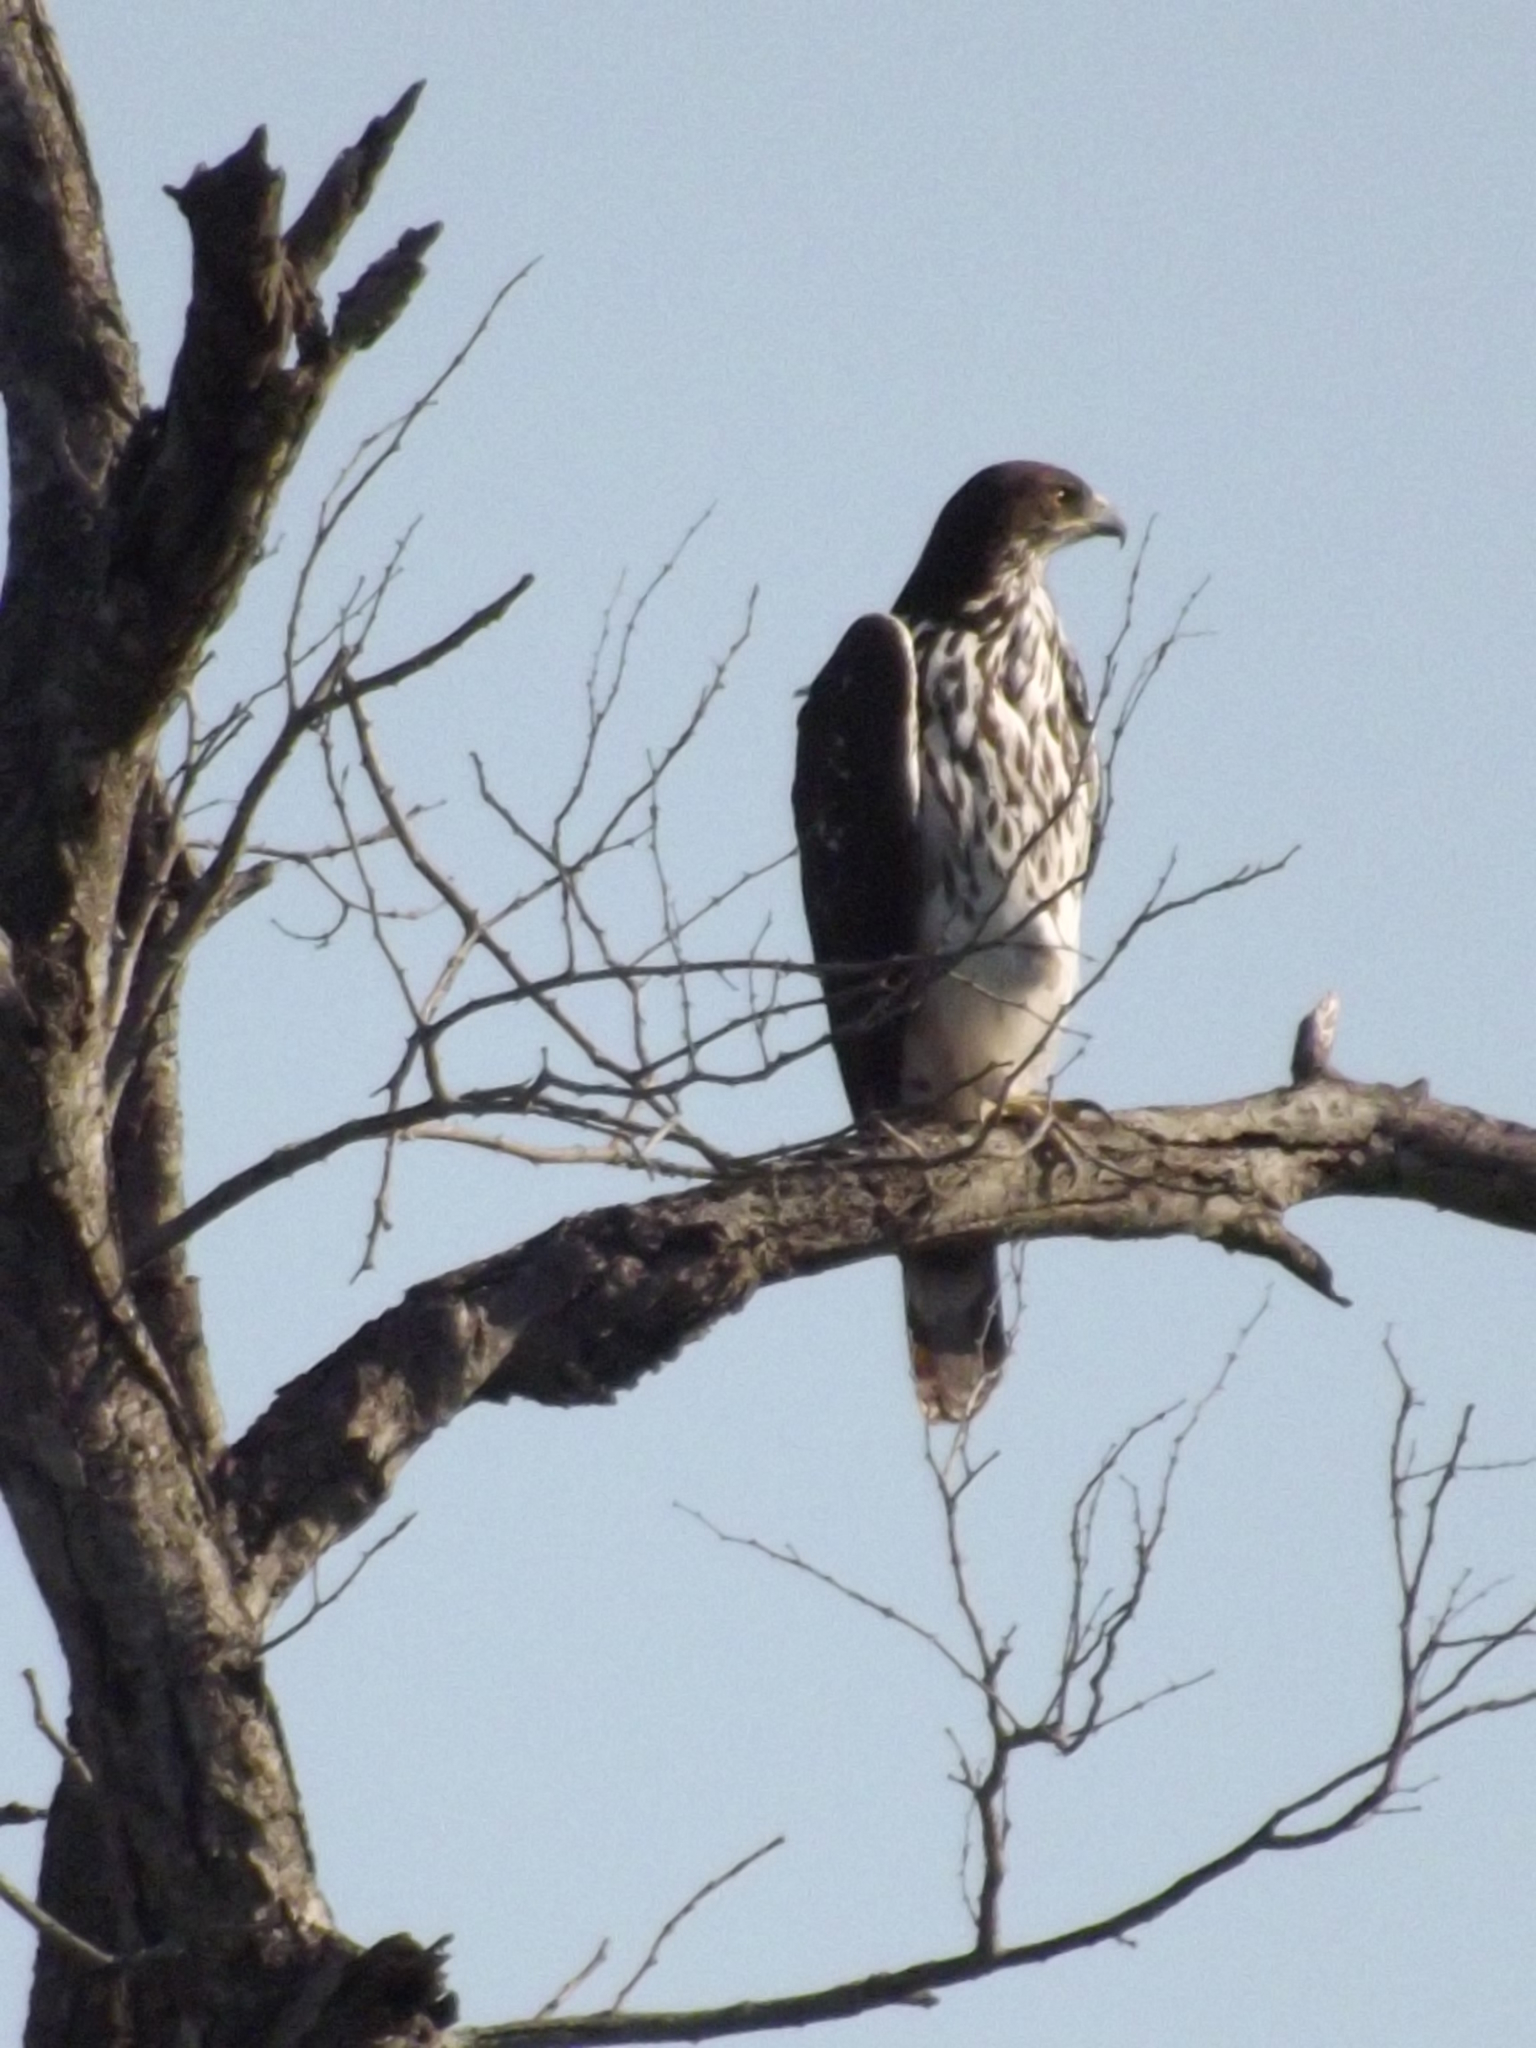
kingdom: Animalia
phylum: Chordata
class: Aves
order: Accipitriformes
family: Accipitridae
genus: Aquila
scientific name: Aquila spilogaster
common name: African hawk-eagle
